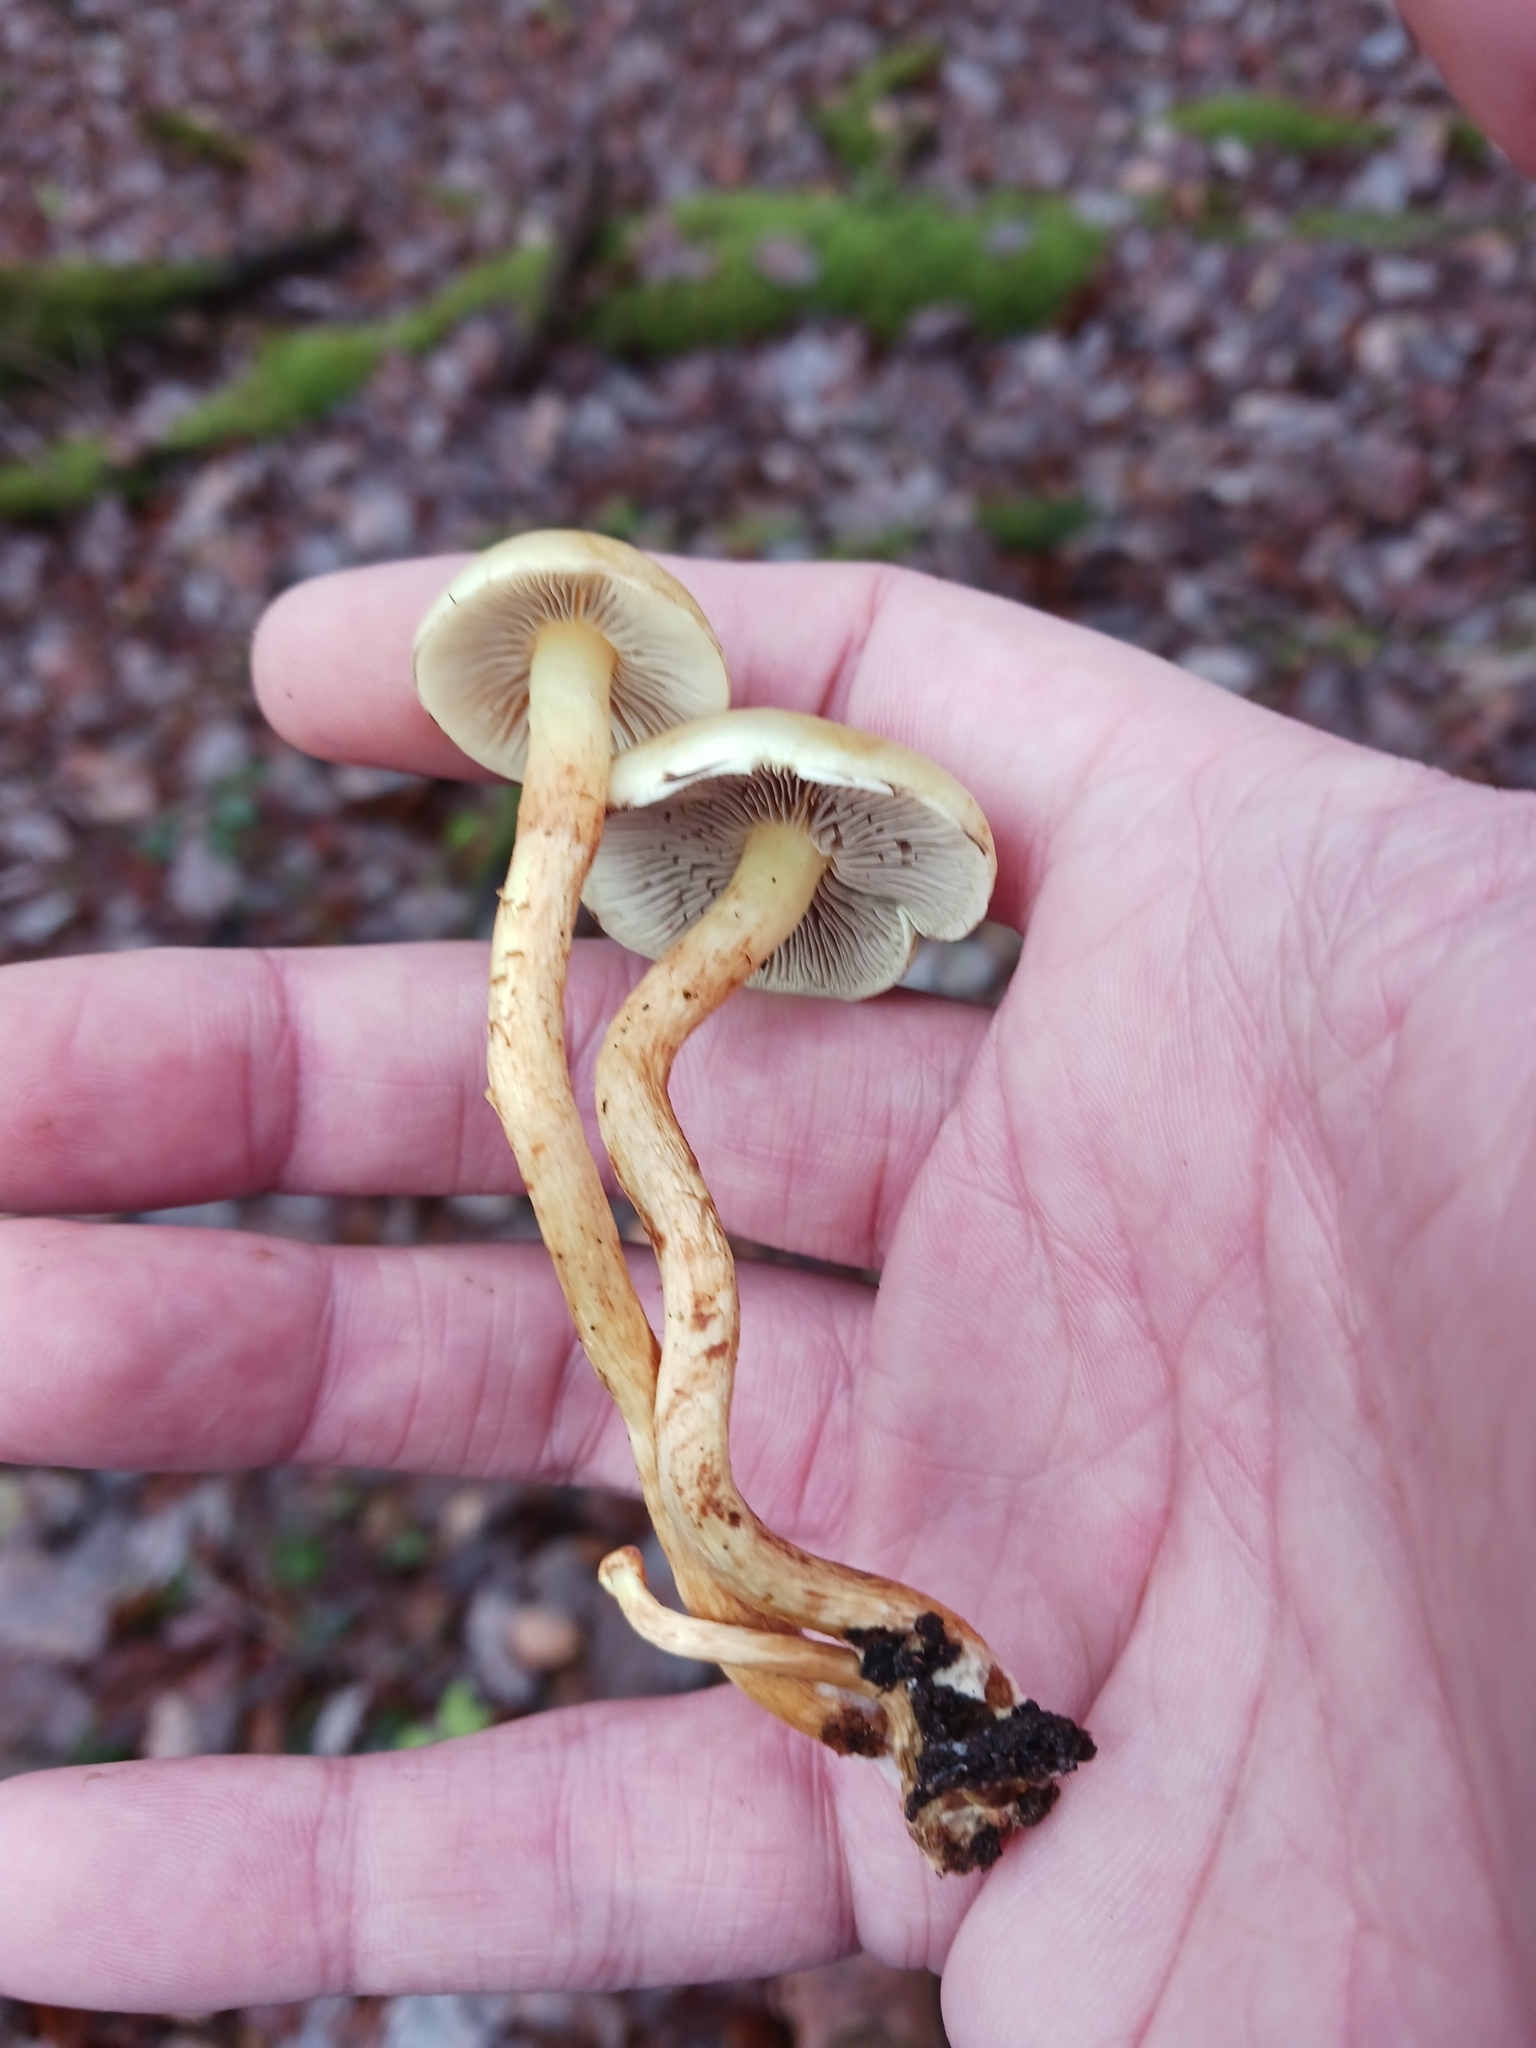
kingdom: Fungi
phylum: Basidiomycota
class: Agaricomycetes
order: Agaricales
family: Strophariaceae
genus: Hypholoma
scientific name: Hypholoma fasciculare
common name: Sulphur tuft
